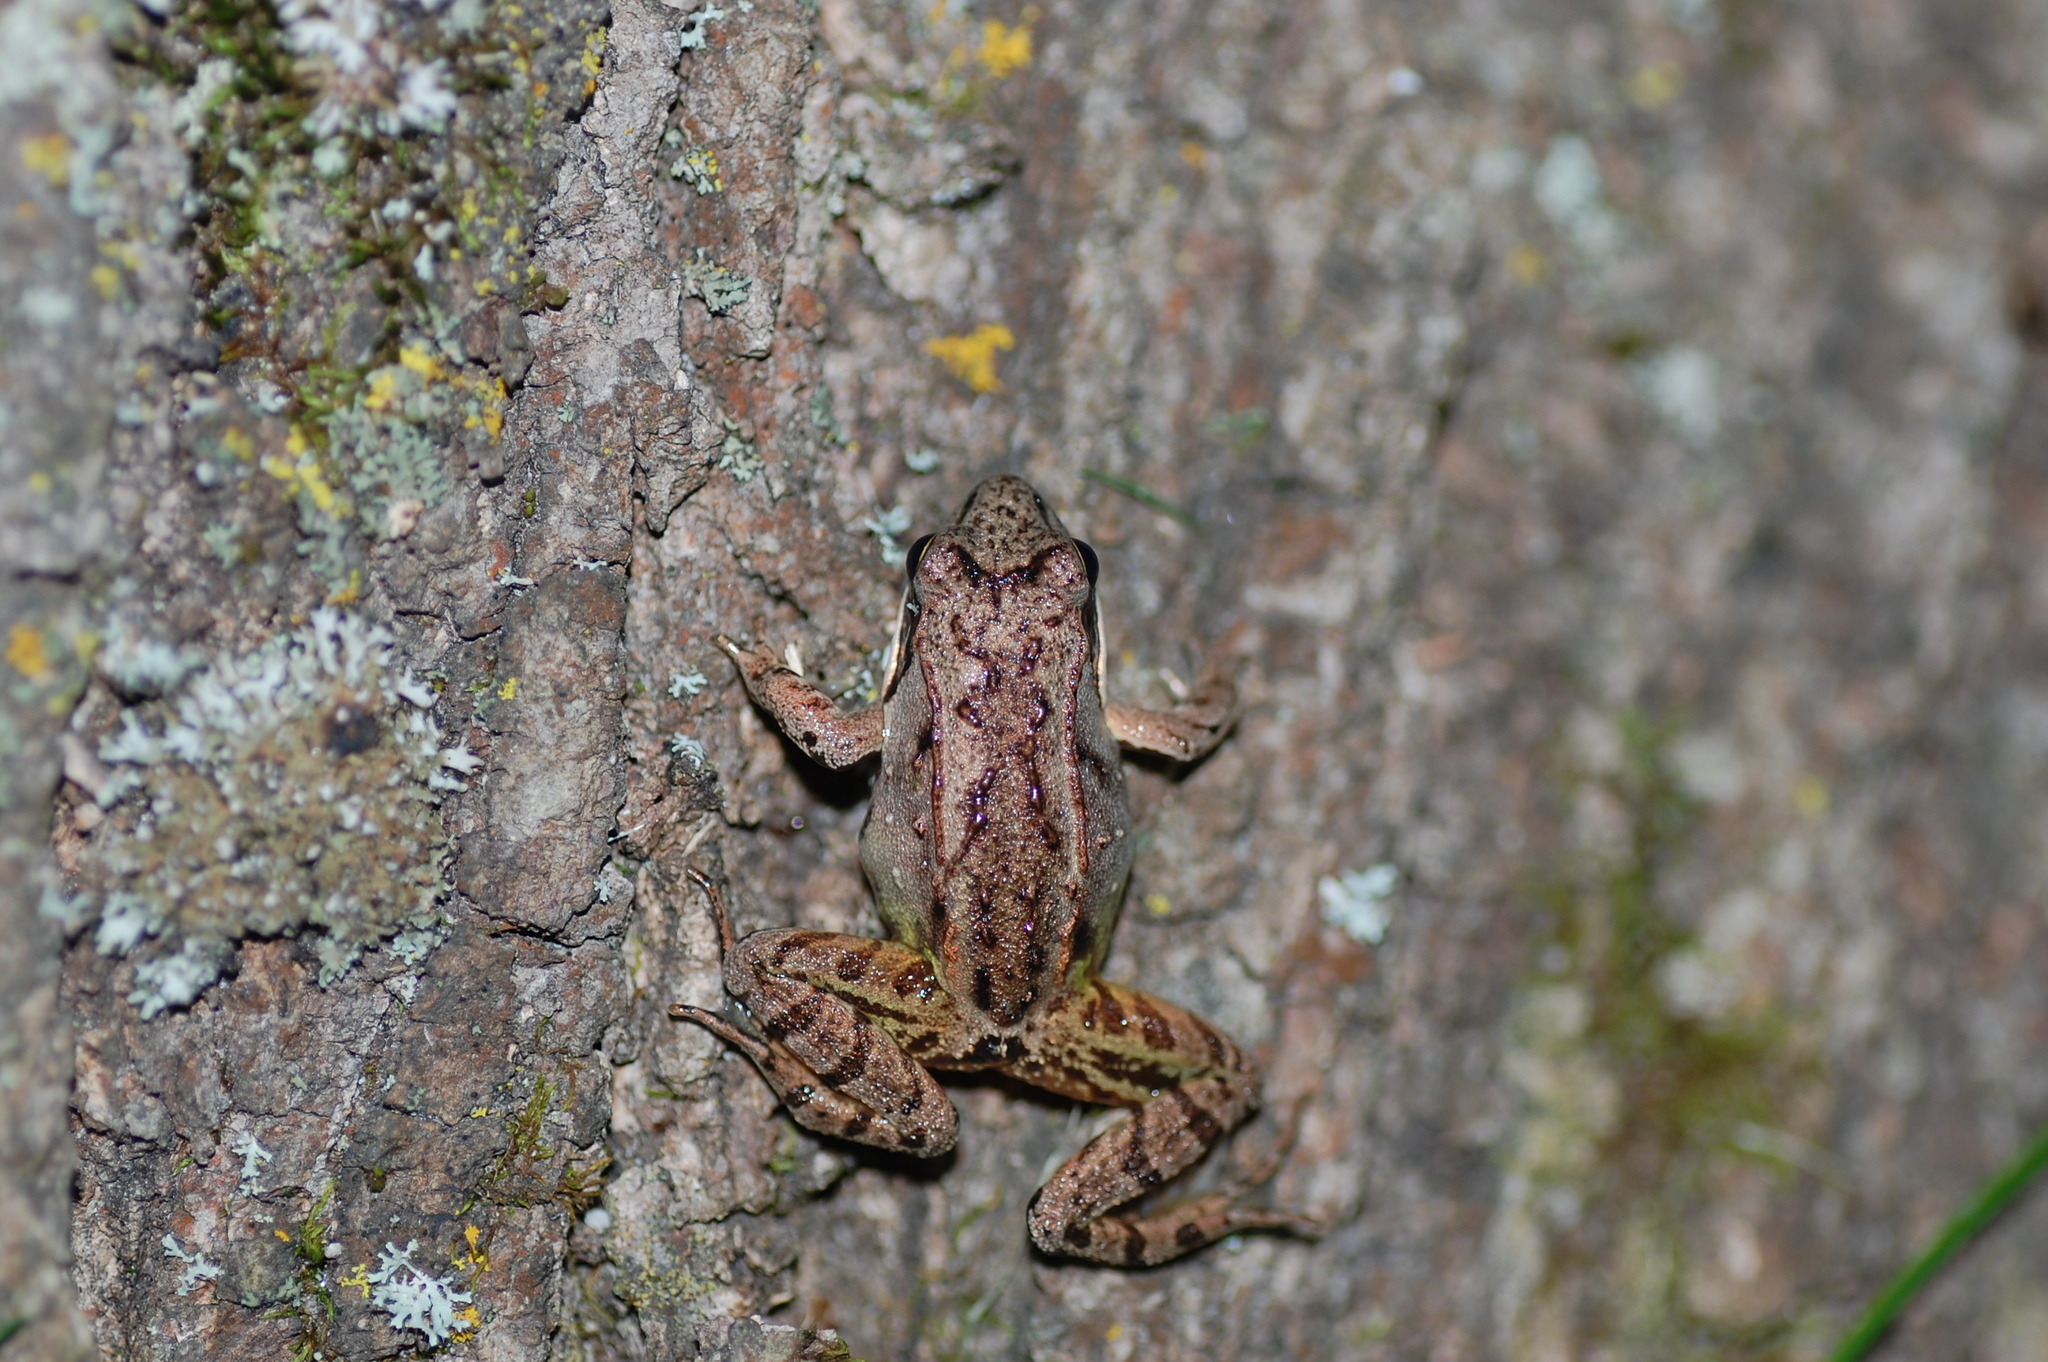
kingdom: Animalia
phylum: Chordata
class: Amphibia
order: Anura
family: Ranidae
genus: Lithobates
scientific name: Lithobates sylvaticus
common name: Wood frog
